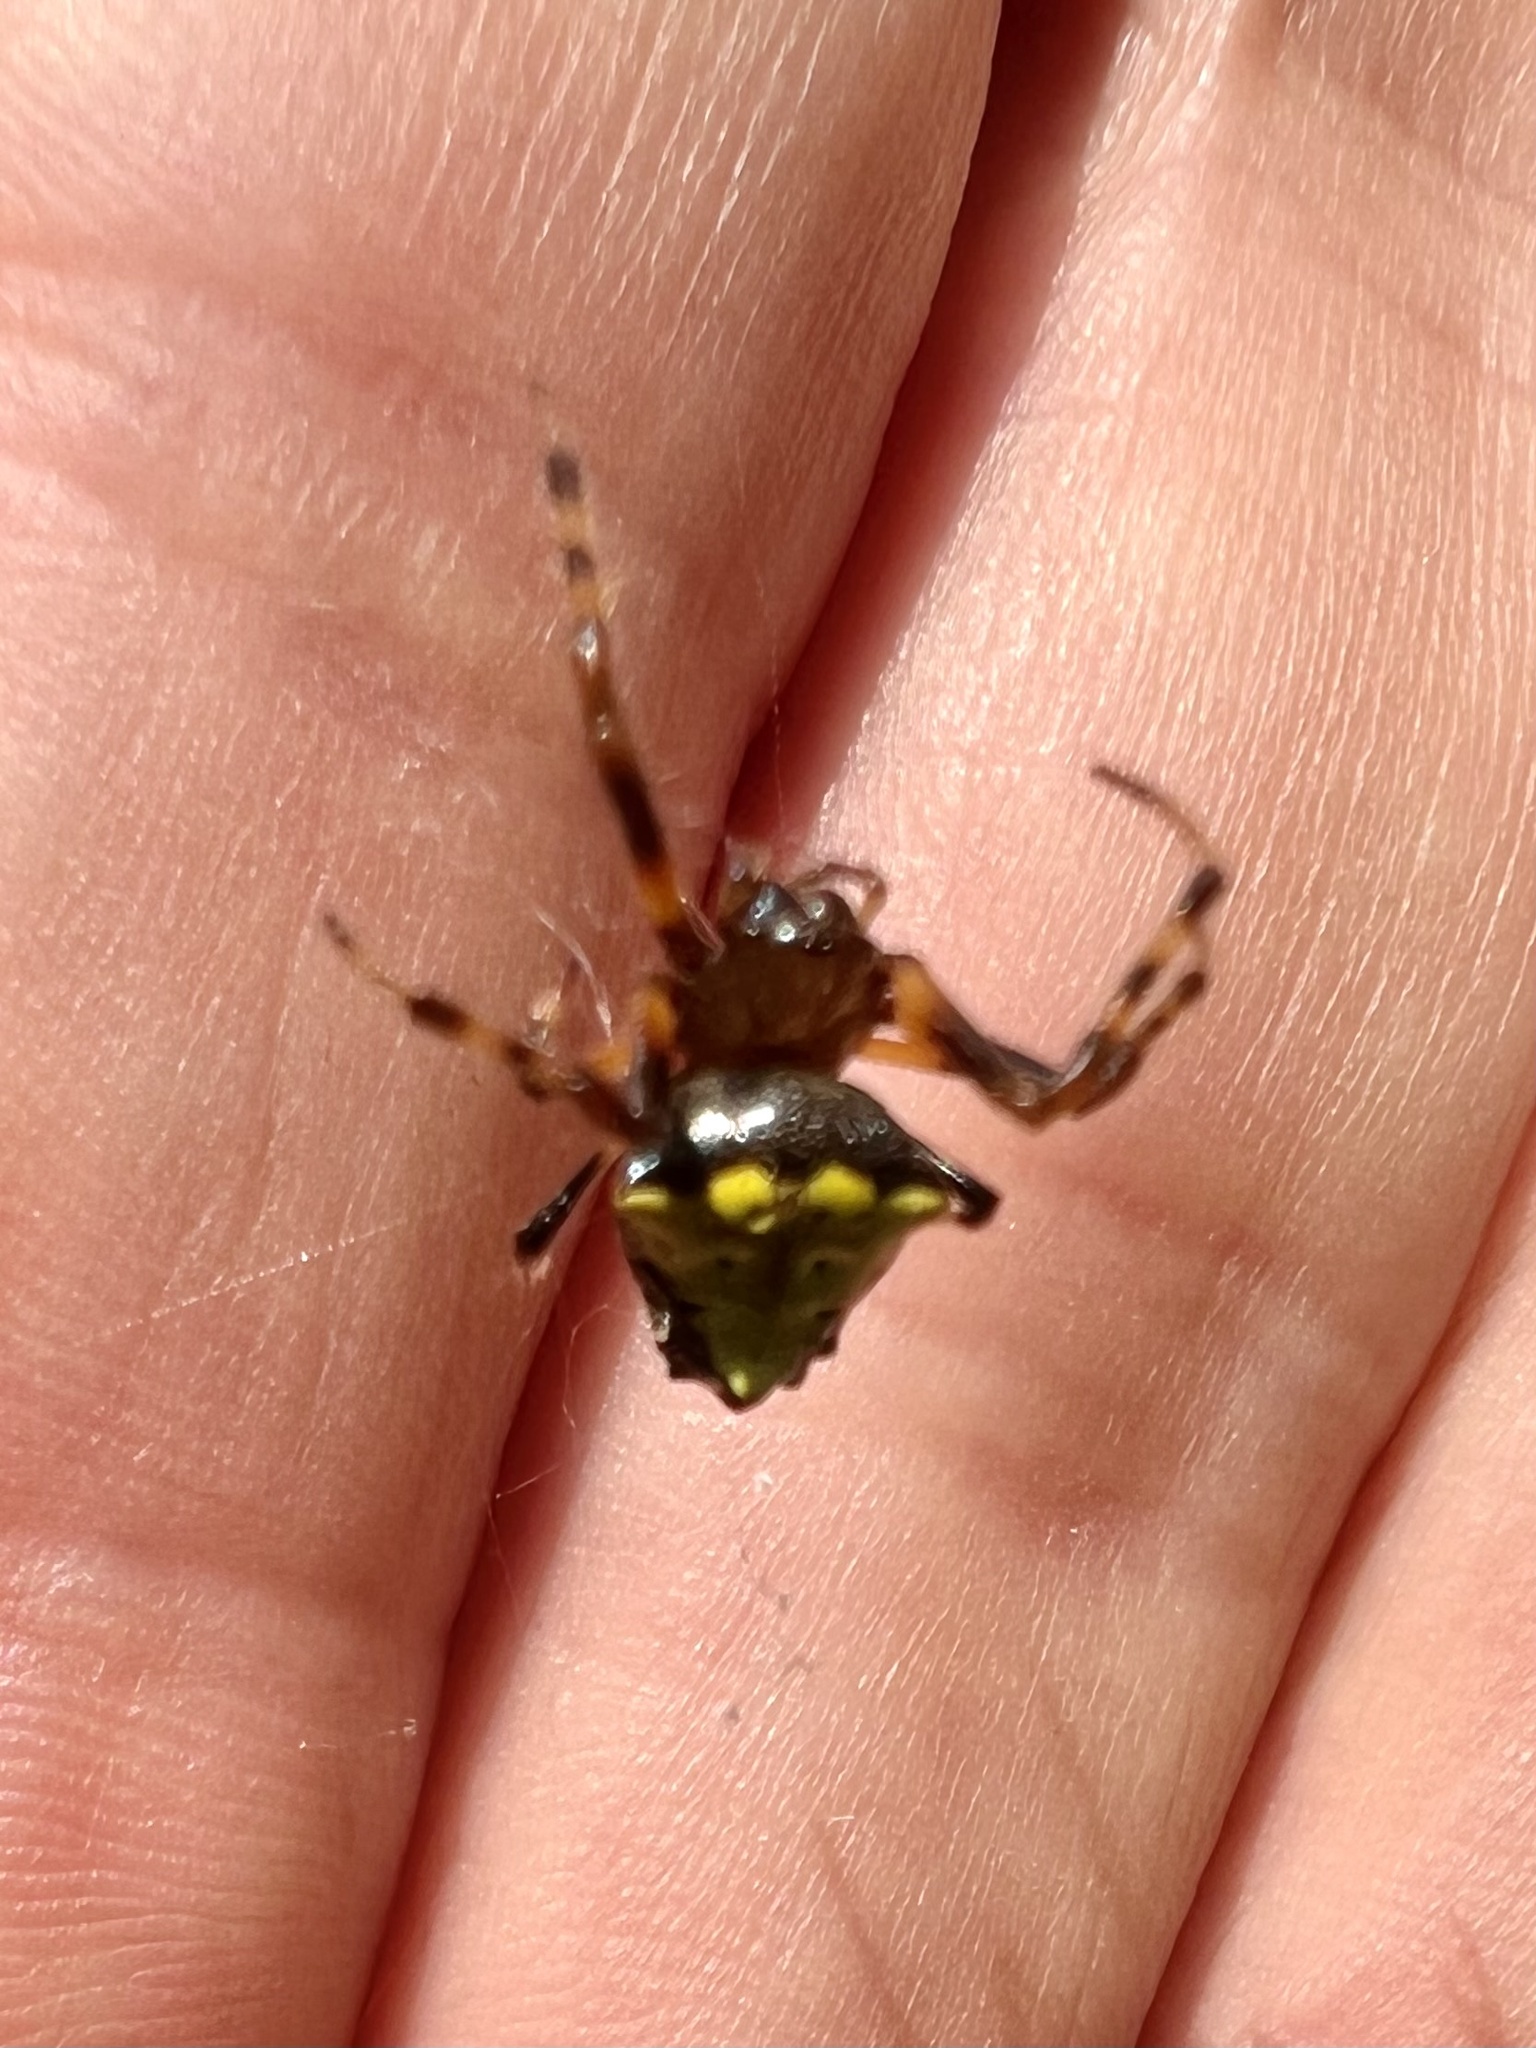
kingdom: Animalia
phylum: Arthropoda
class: Arachnida
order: Araneae
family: Araneidae
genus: Verrucosa
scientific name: Verrucosa arenata
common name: Orb weavers
